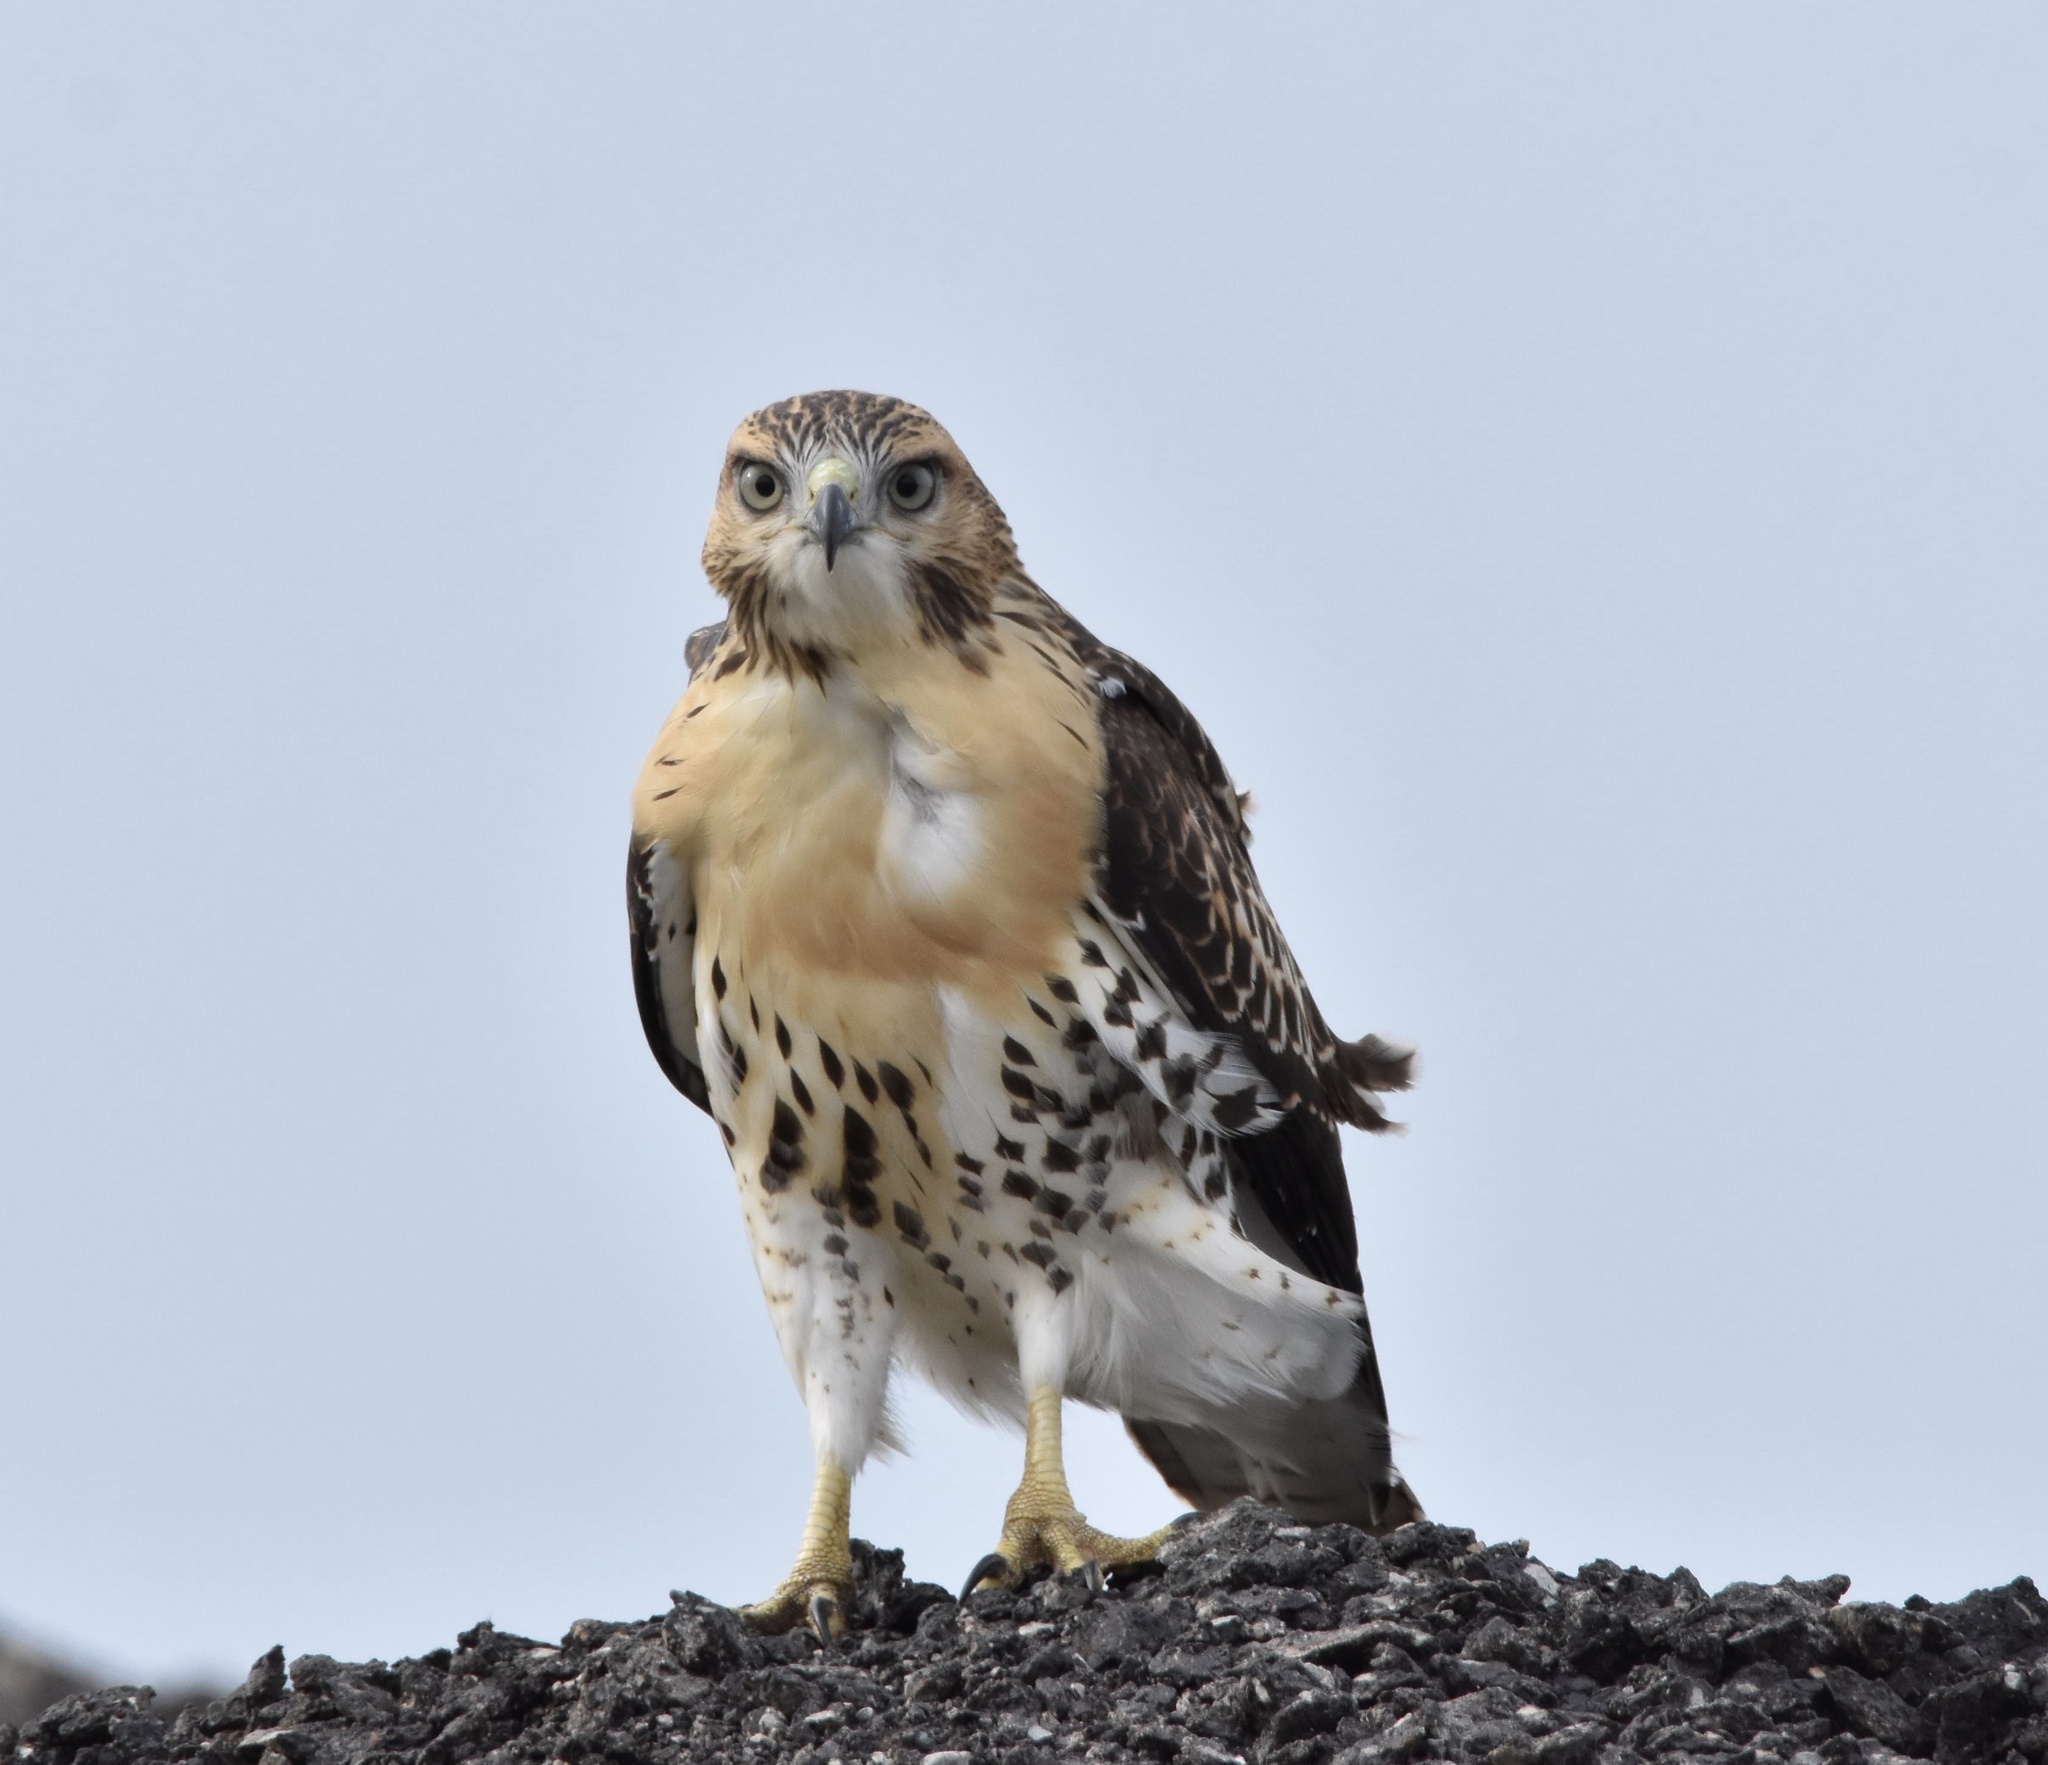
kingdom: Animalia
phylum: Chordata
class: Aves
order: Accipitriformes
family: Accipitridae
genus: Buteo
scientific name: Buteo jamaicensis
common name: Red-tailed hawk
